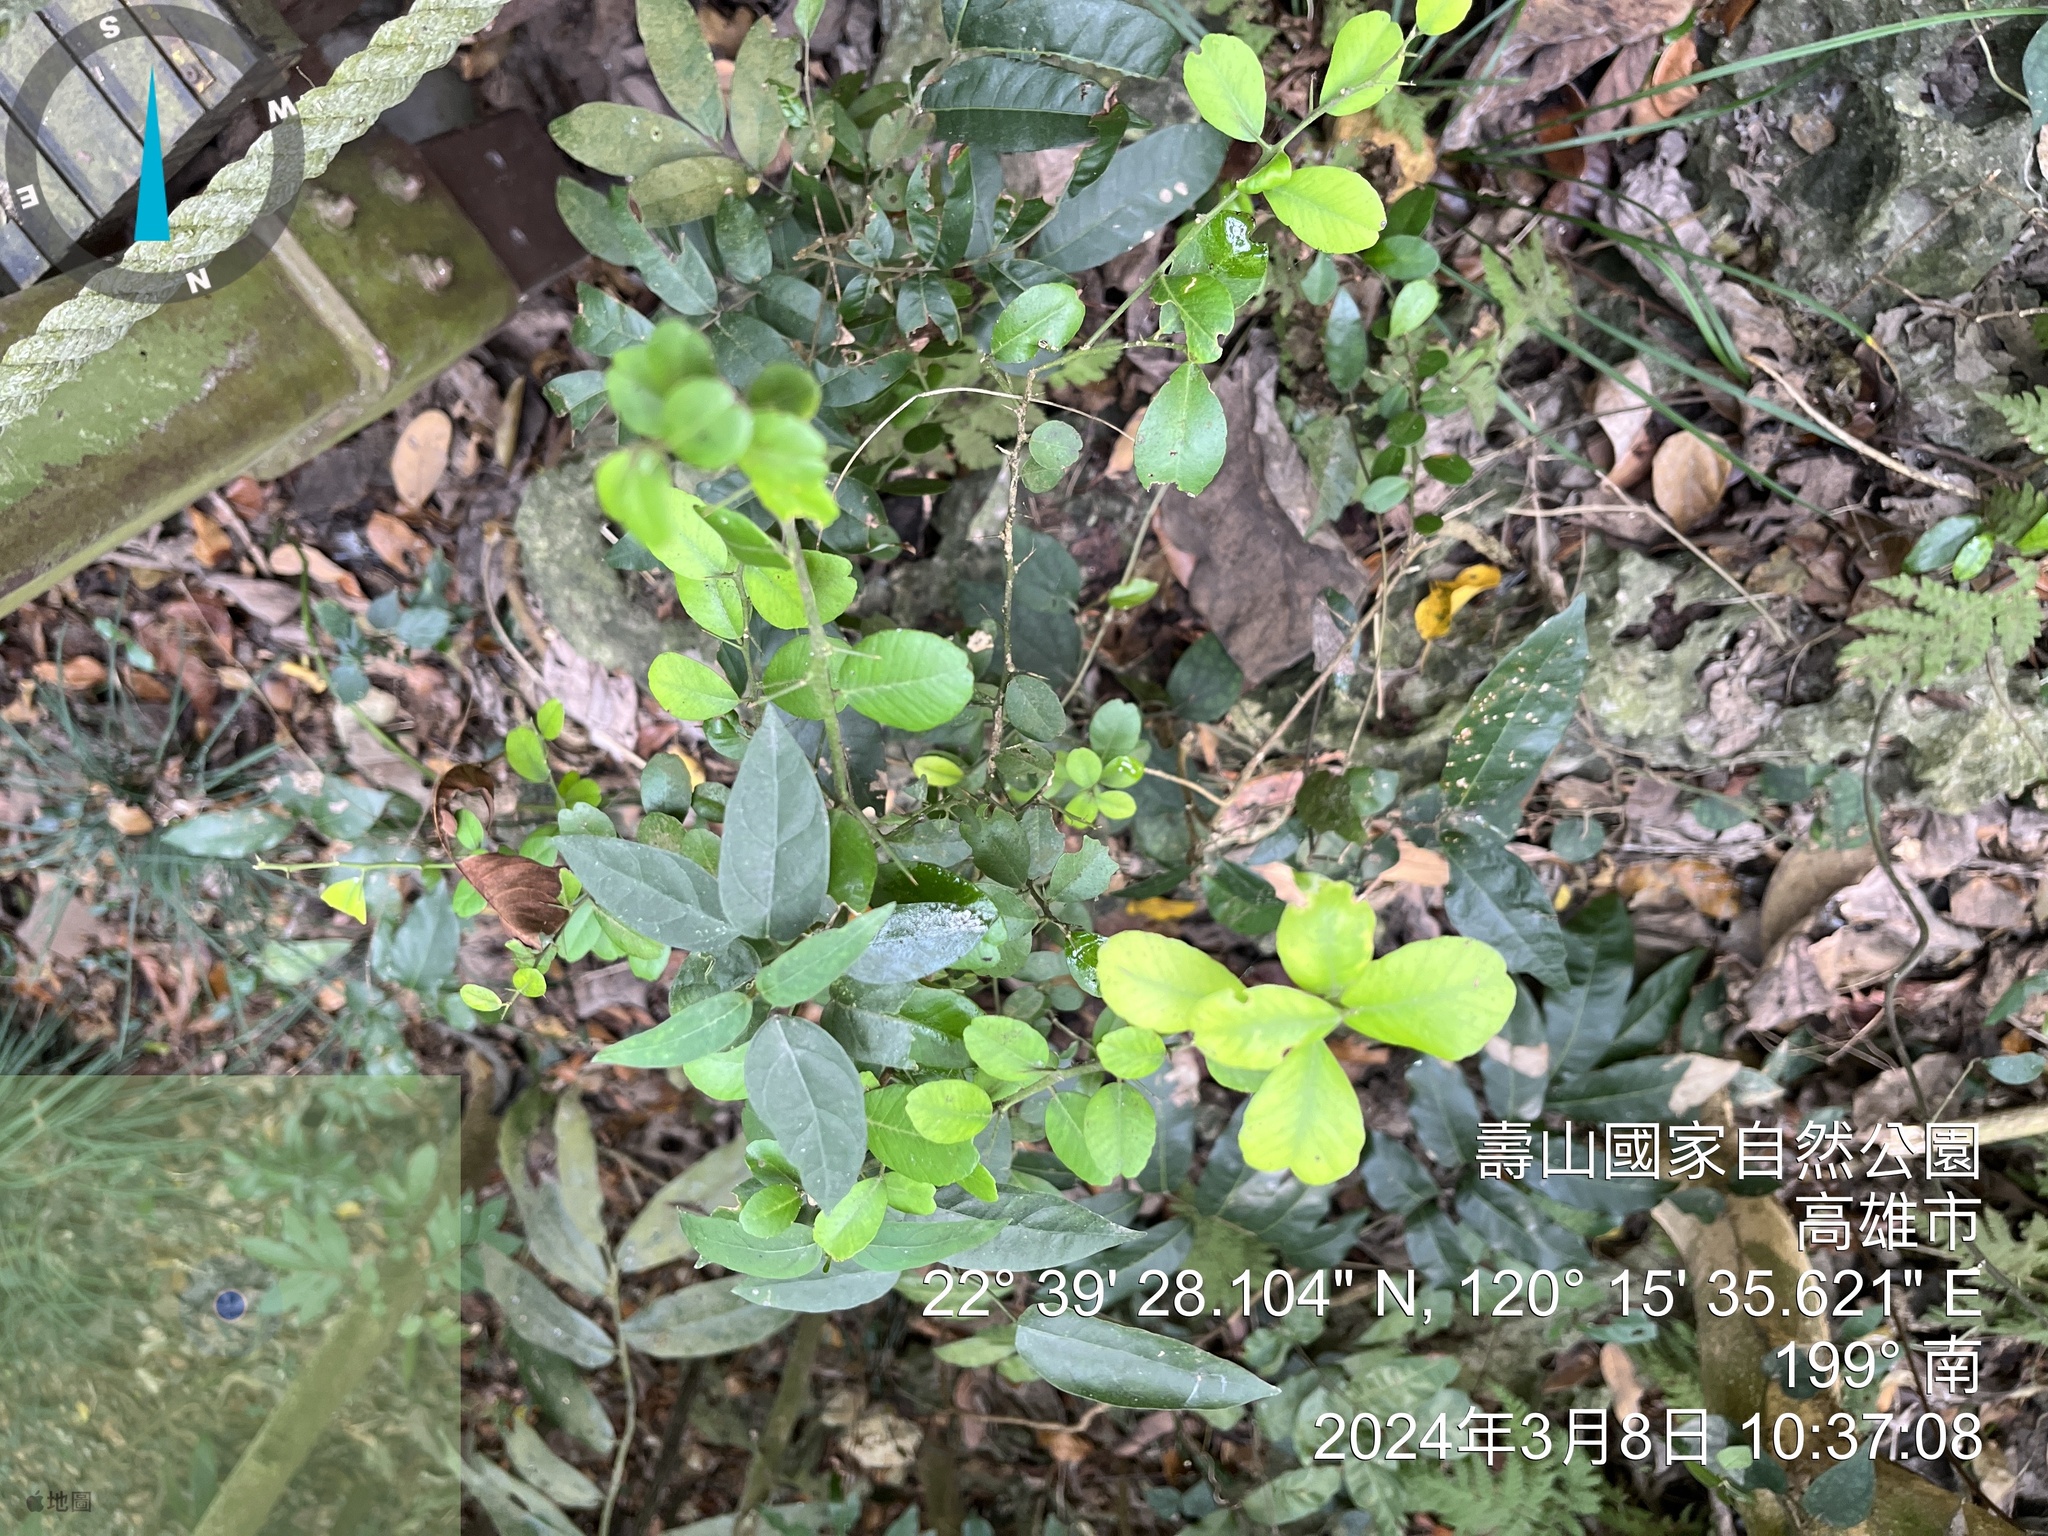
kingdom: Plantae
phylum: Tracheophyta
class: Magnoliopsida
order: Sapindales
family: Rutaceae
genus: Atalantia
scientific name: Atalantia buxifolia
